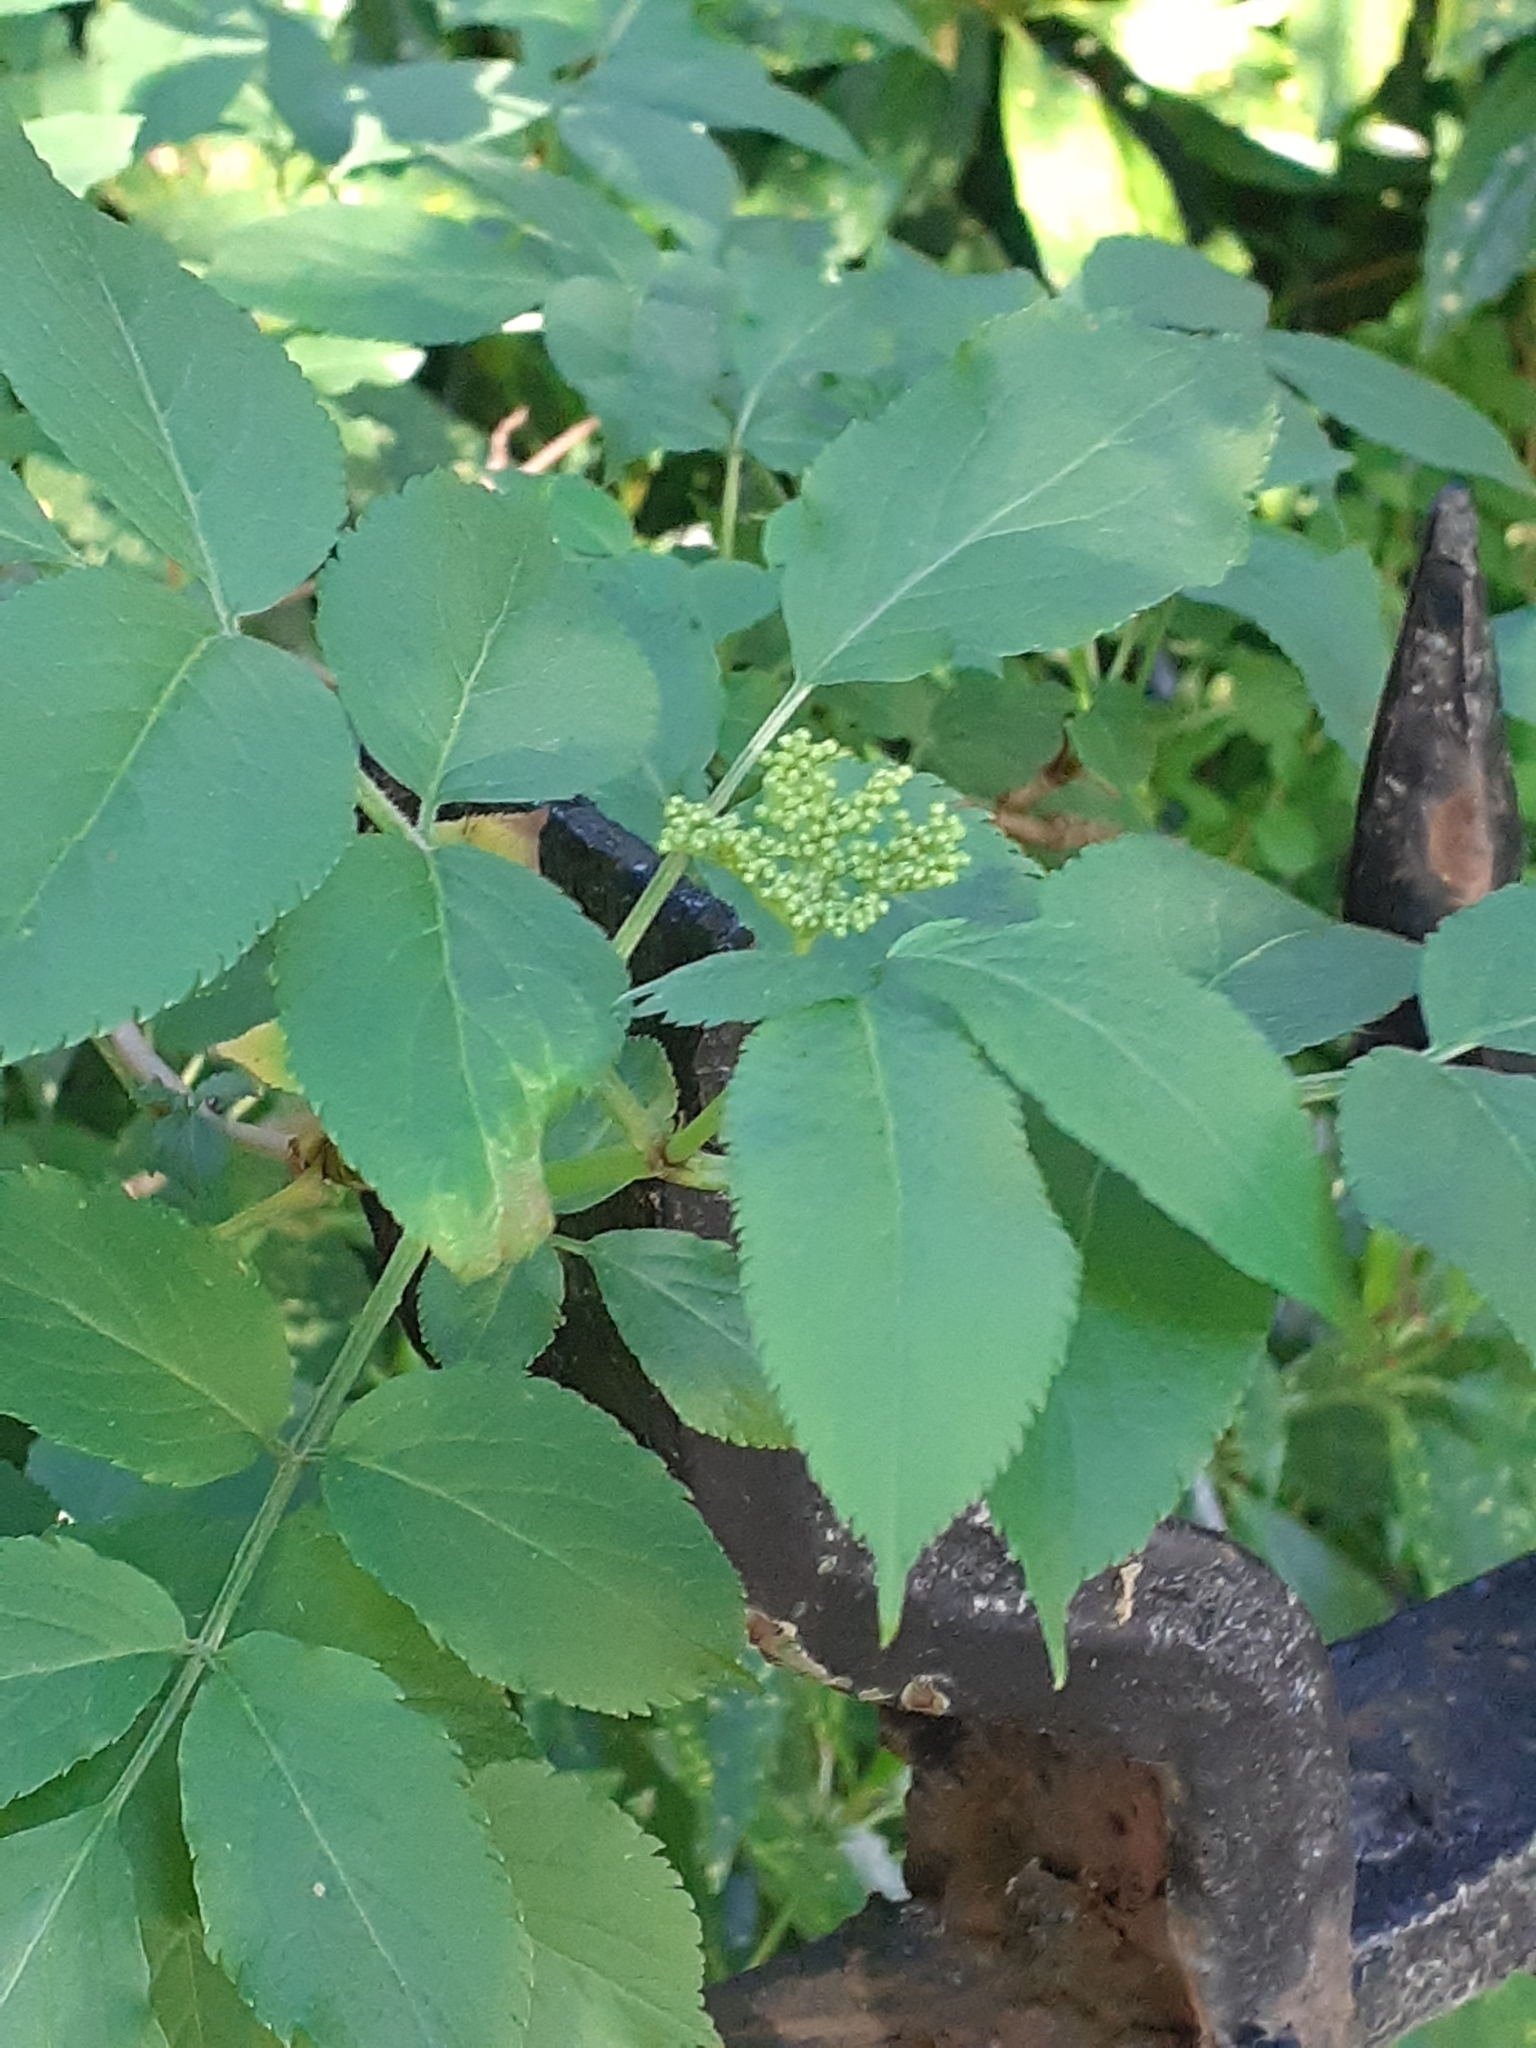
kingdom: Plantae
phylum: Tracheophyta
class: Magnoliopsida
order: Dipsacales
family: Viburnaceae
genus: Sambucus
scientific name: Sambucus nigra
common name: Elder
